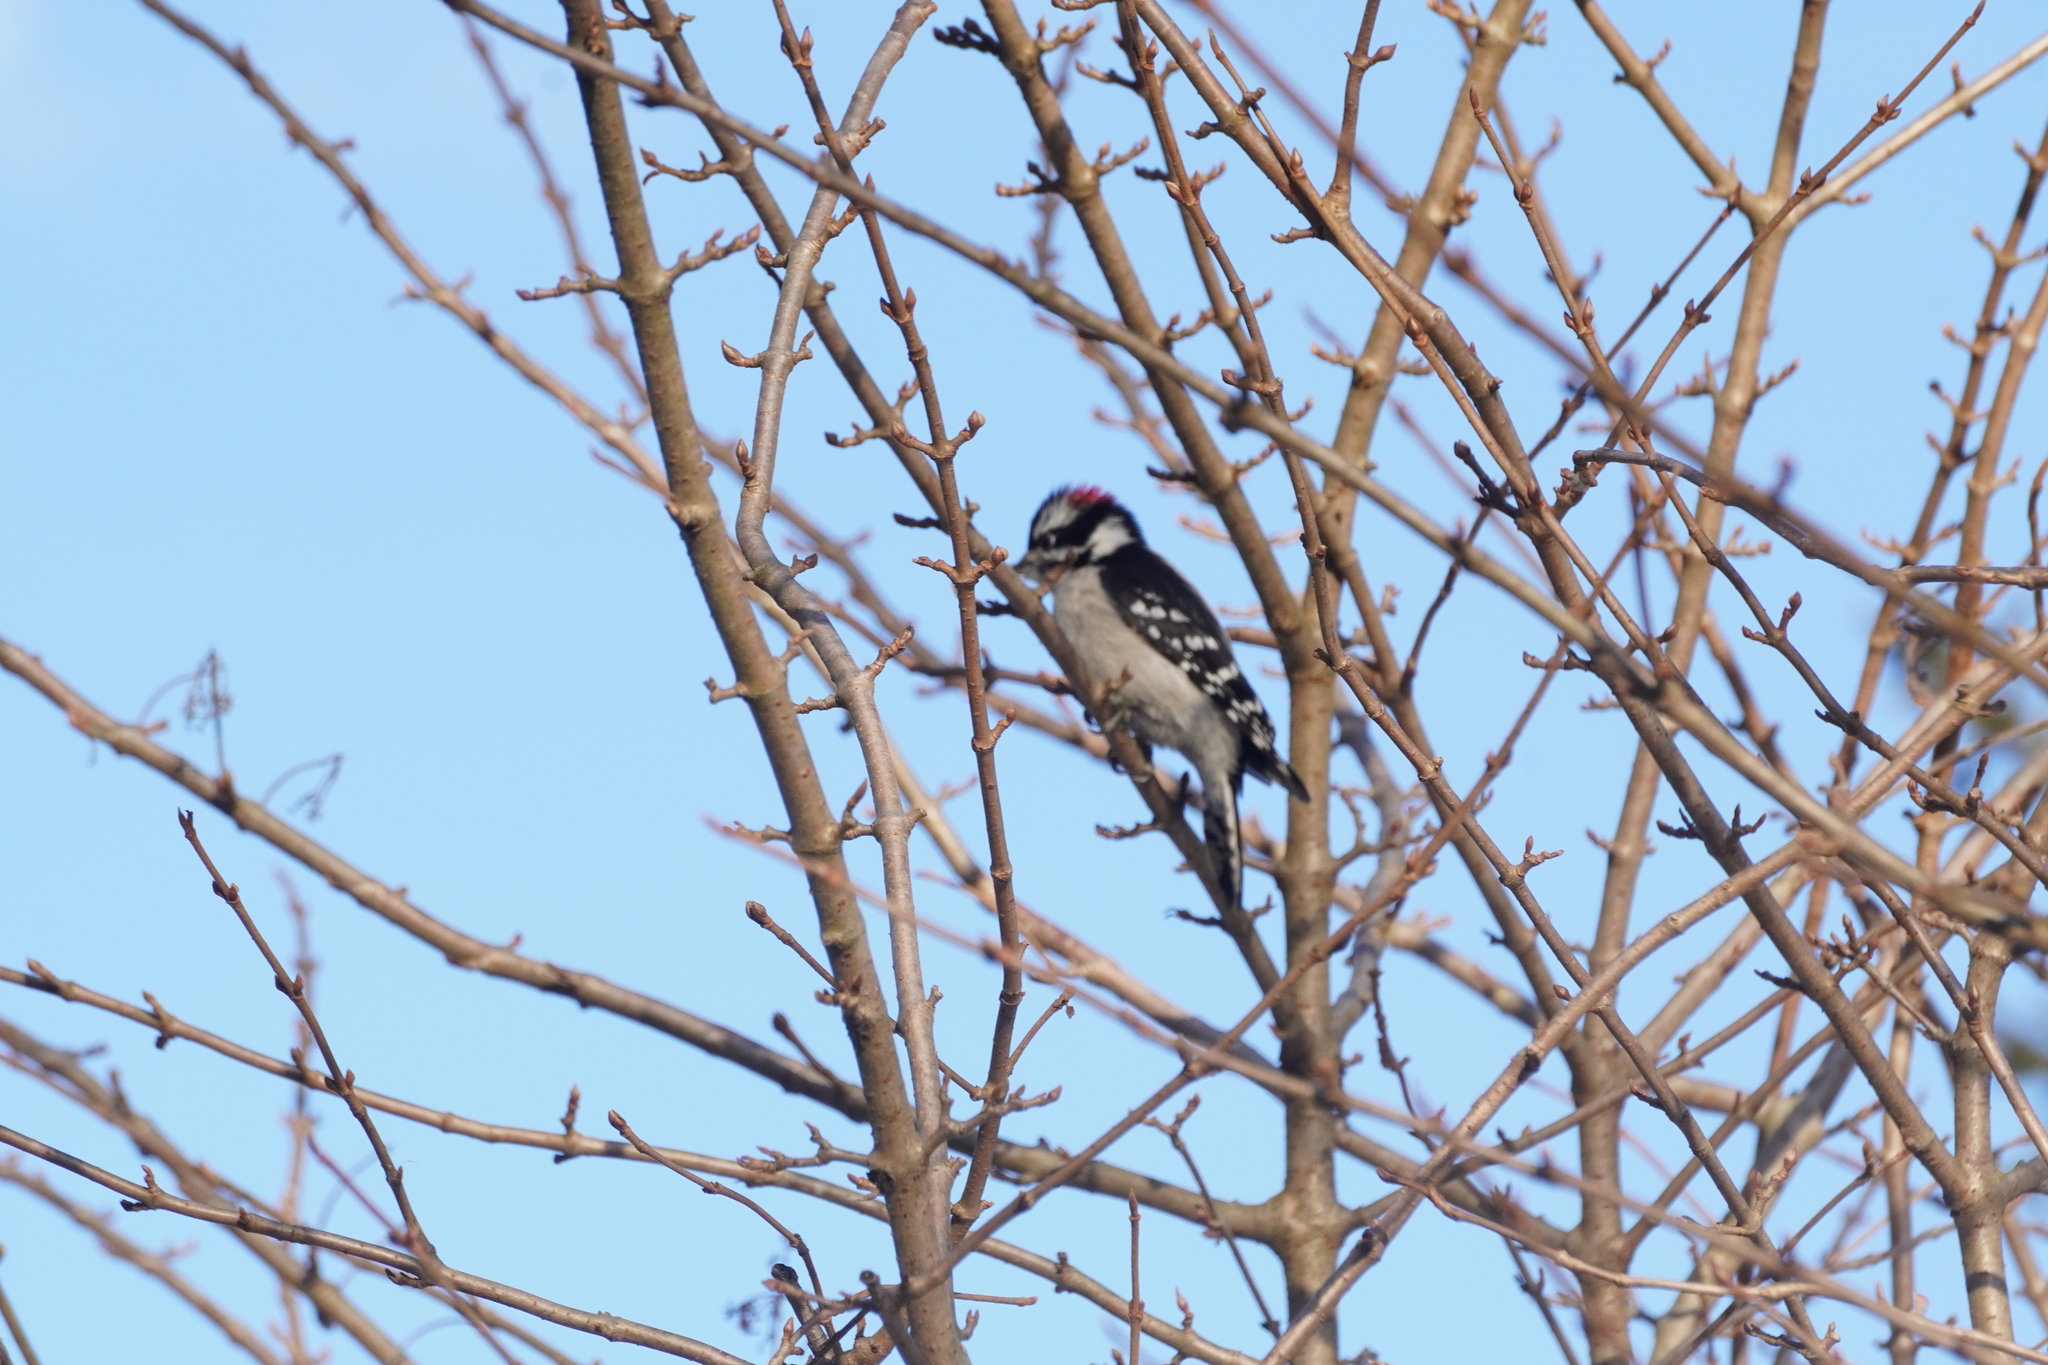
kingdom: Animalia
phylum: Chordata
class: Aves
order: Piciformes
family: Picidae
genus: Dryobates
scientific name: Dryobates pubescens
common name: Downy woodpecker
